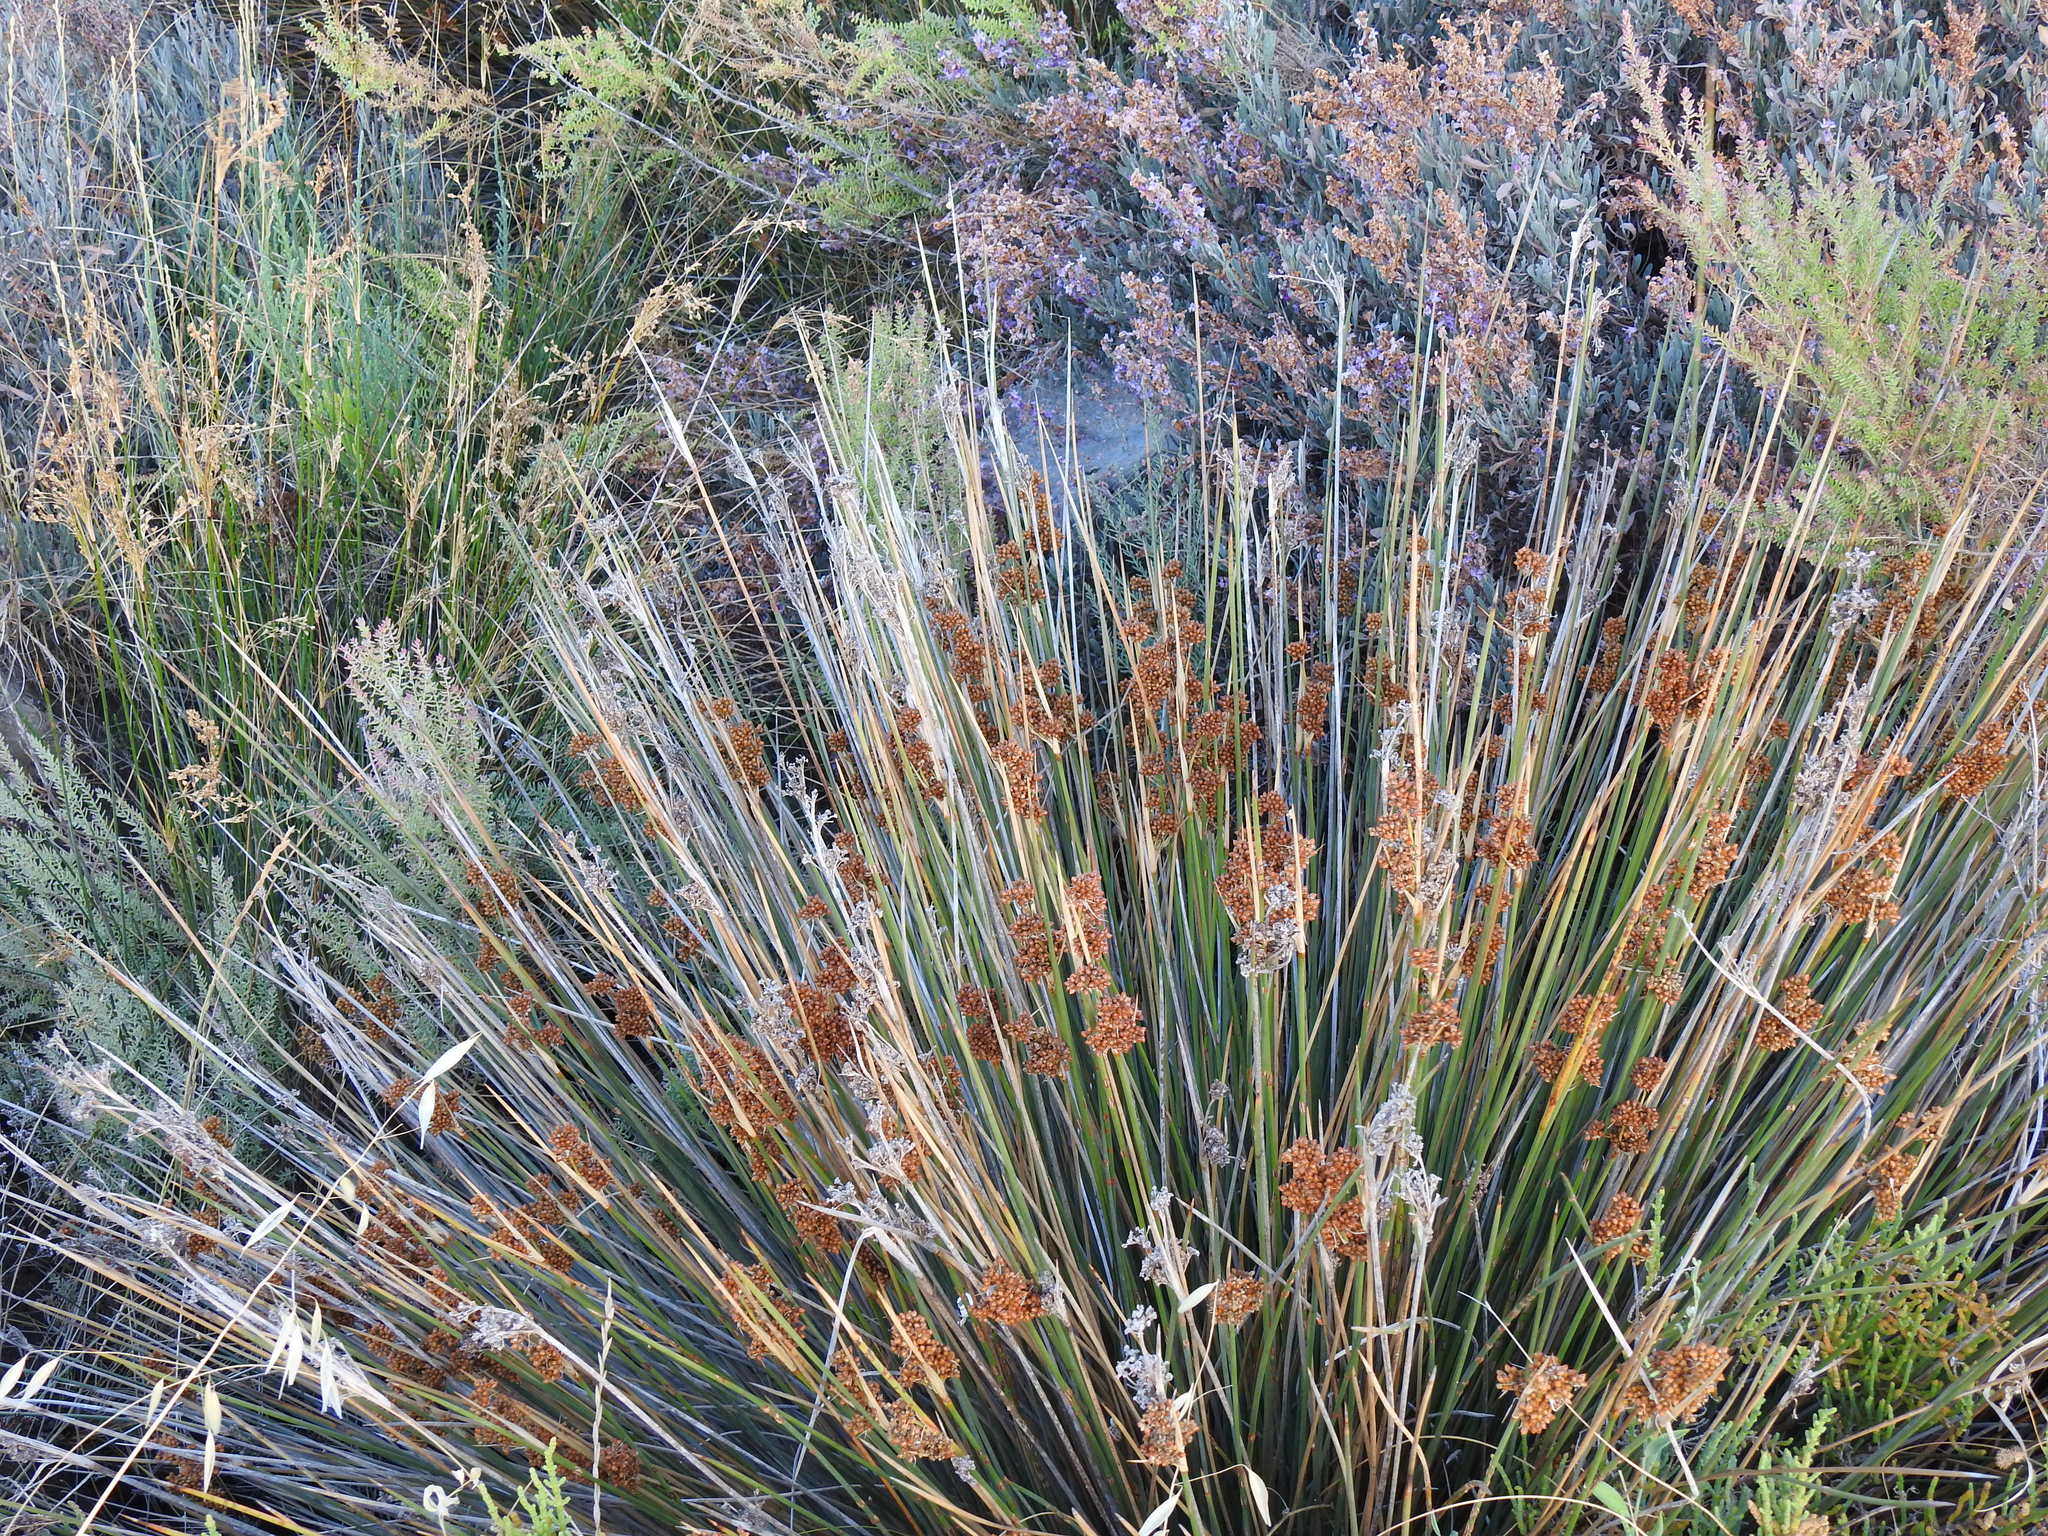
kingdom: Plantae
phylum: Tracheophyta
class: Liliopsida
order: Poales
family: Juncaceae
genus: Juncus
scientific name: Juncus acutus
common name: Sharp rush
